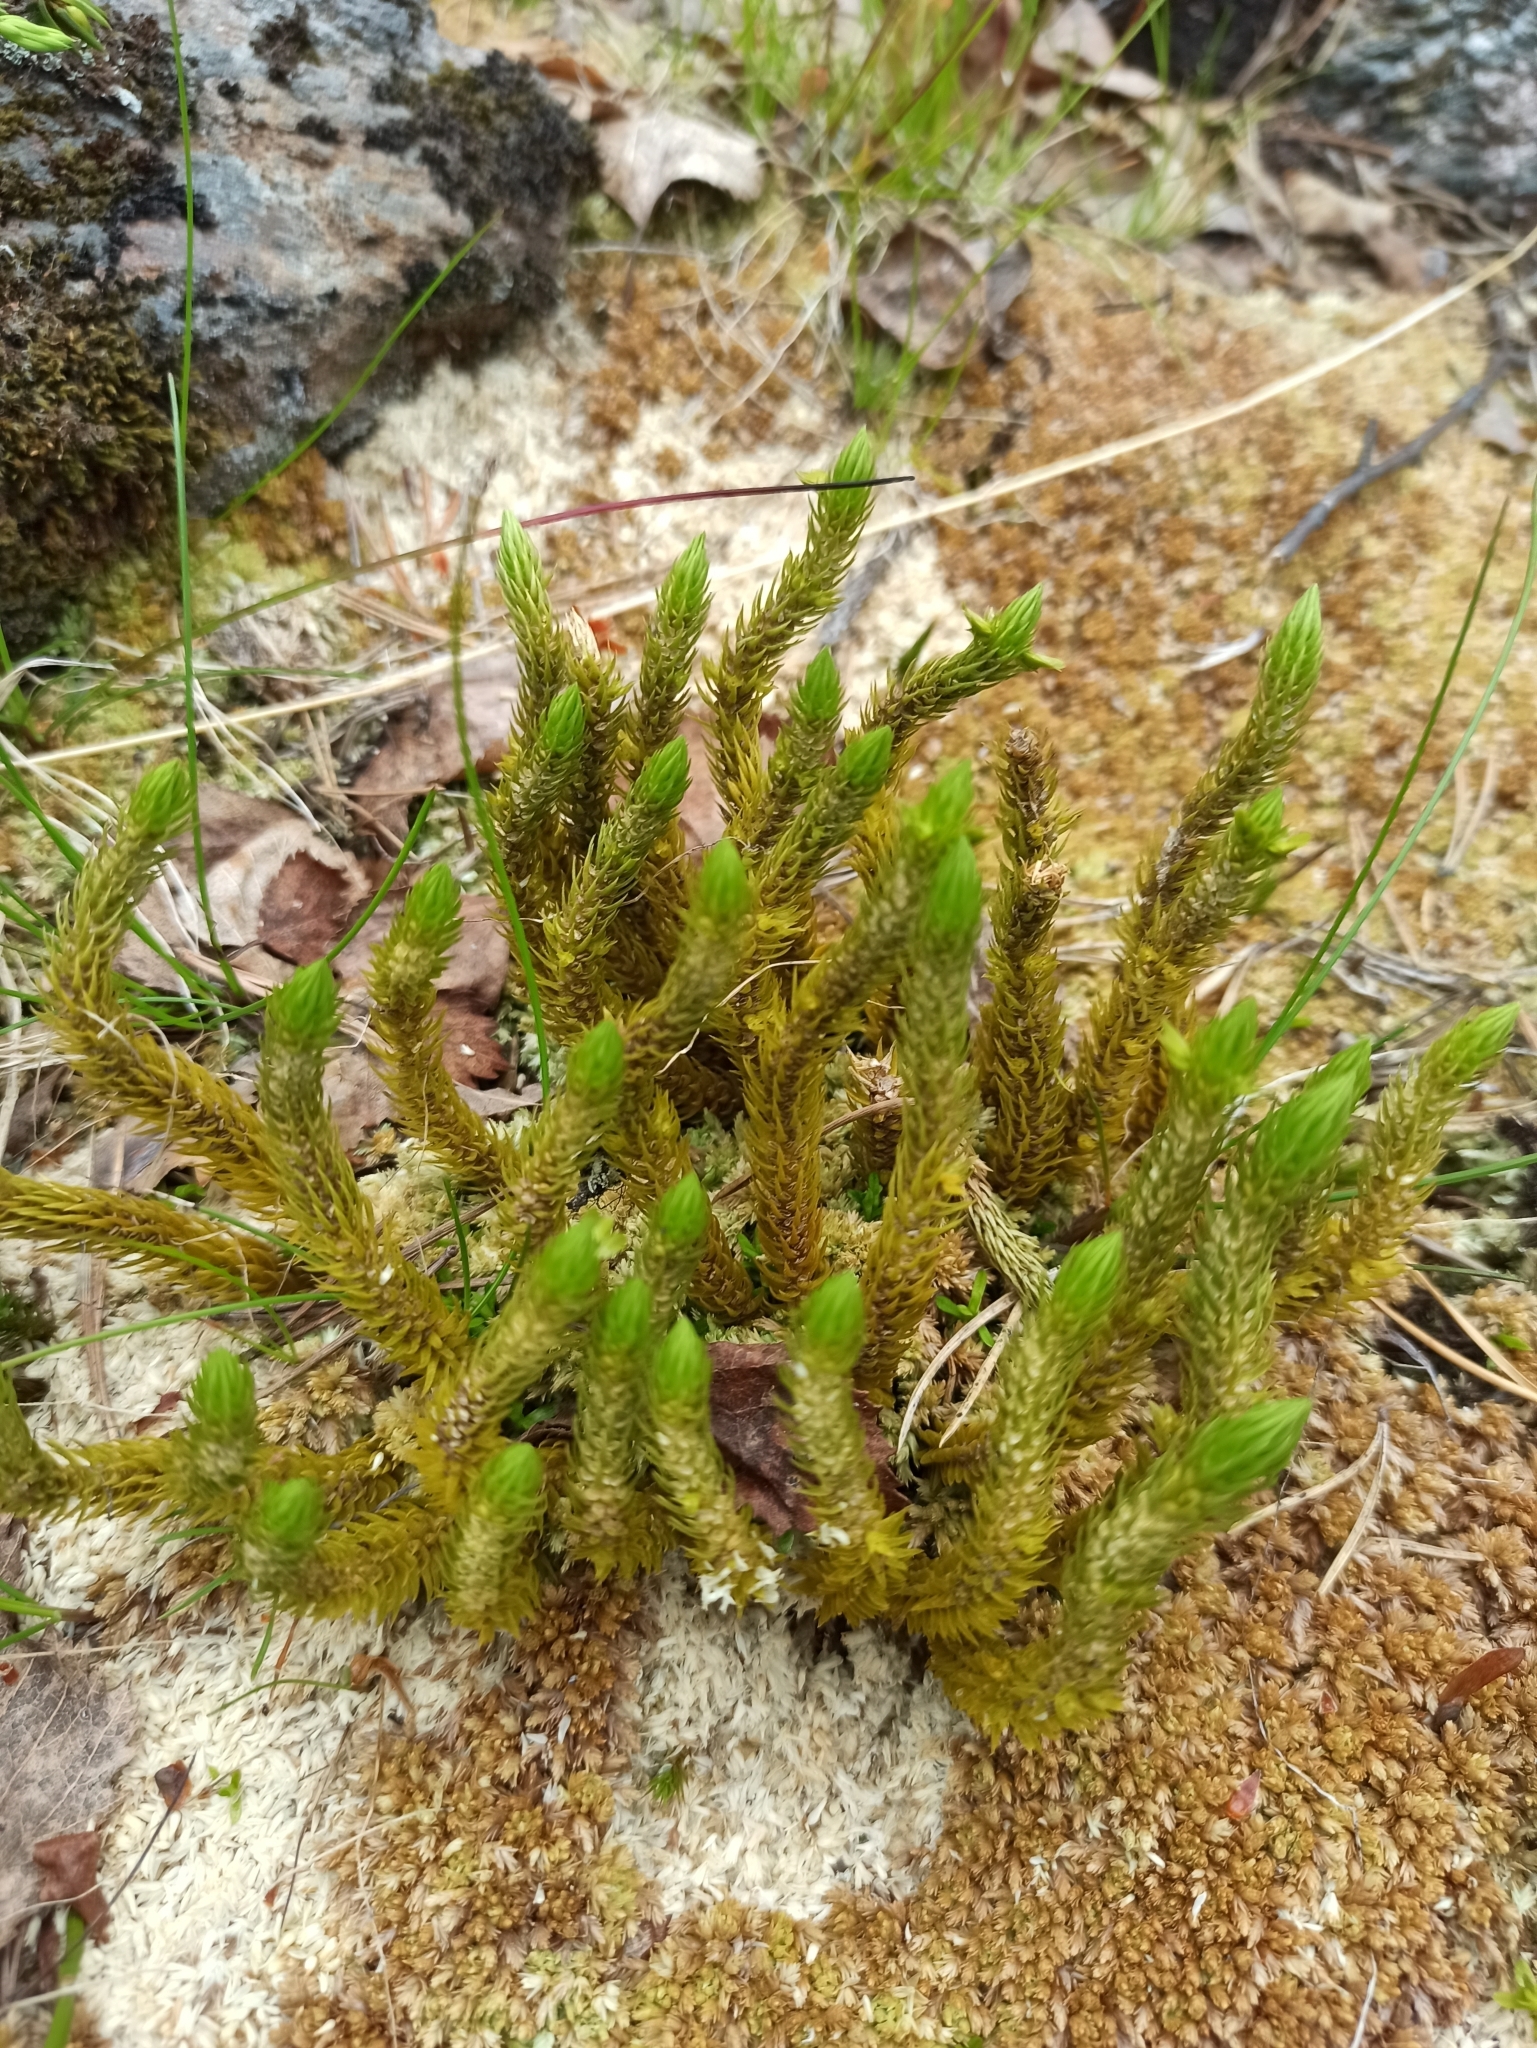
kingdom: Plantae
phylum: Tracheophyta
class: Lycopodiopsida
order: Lycopodiales
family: Lycopodiaceae
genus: Huperzia
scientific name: Huperzia selago
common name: Northern firmoss
